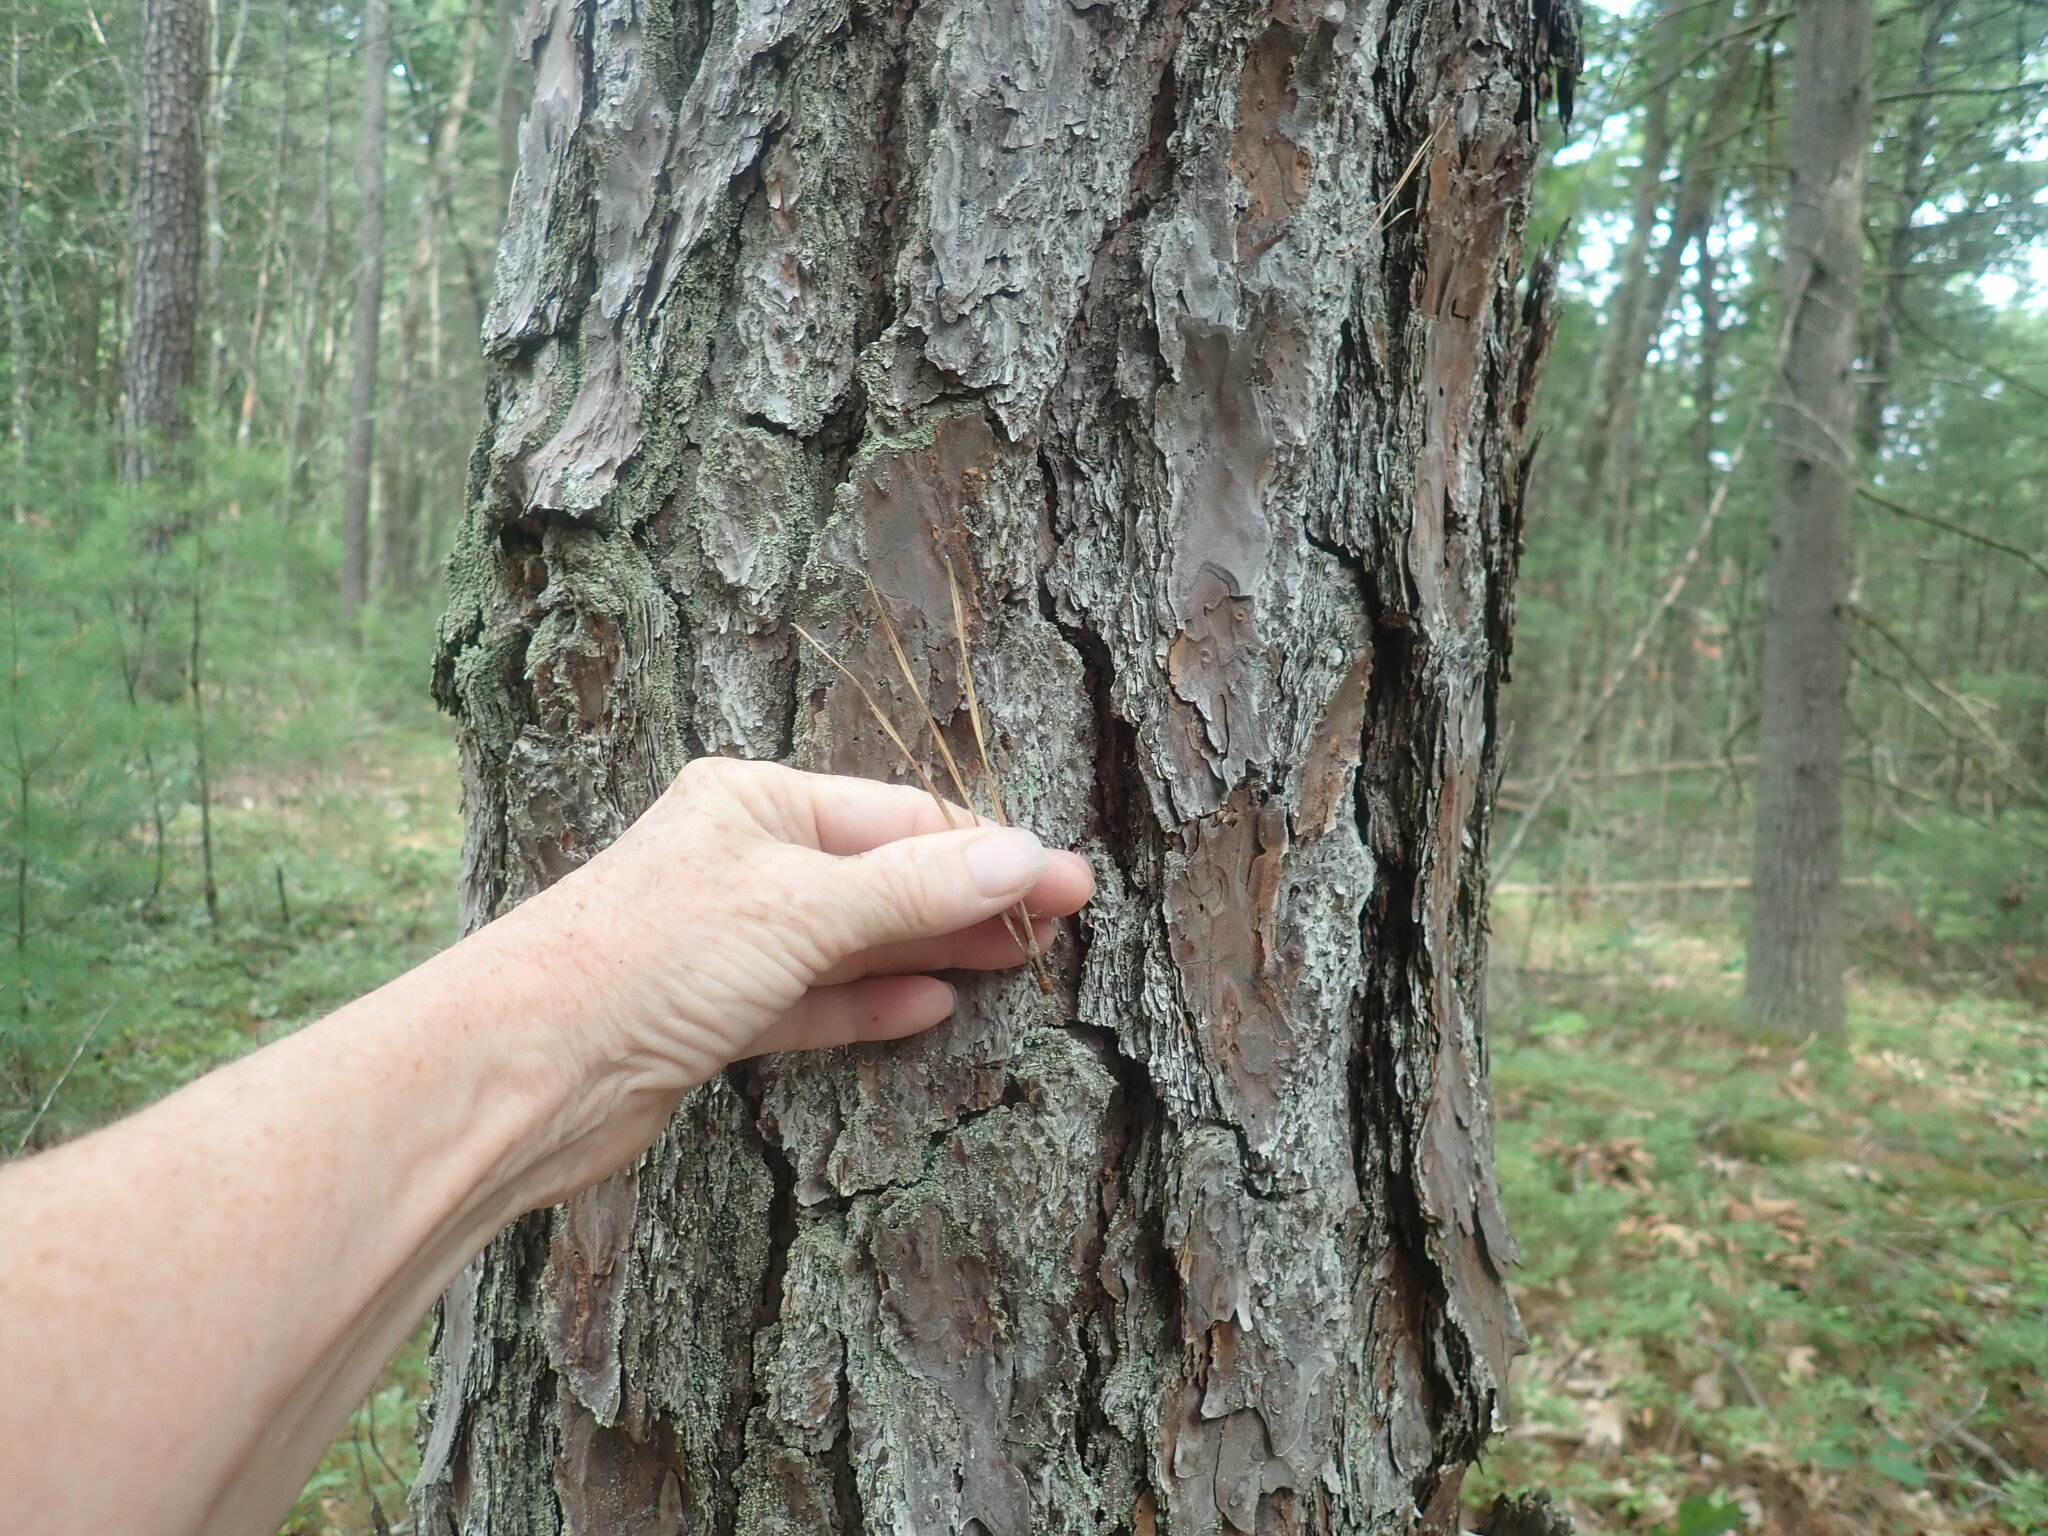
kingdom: Plantae
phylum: Tracheophyta
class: Pinopsida
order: Pinales
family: Pinaceae
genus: Pinus
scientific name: Pinus rigida
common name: Pitch pine
